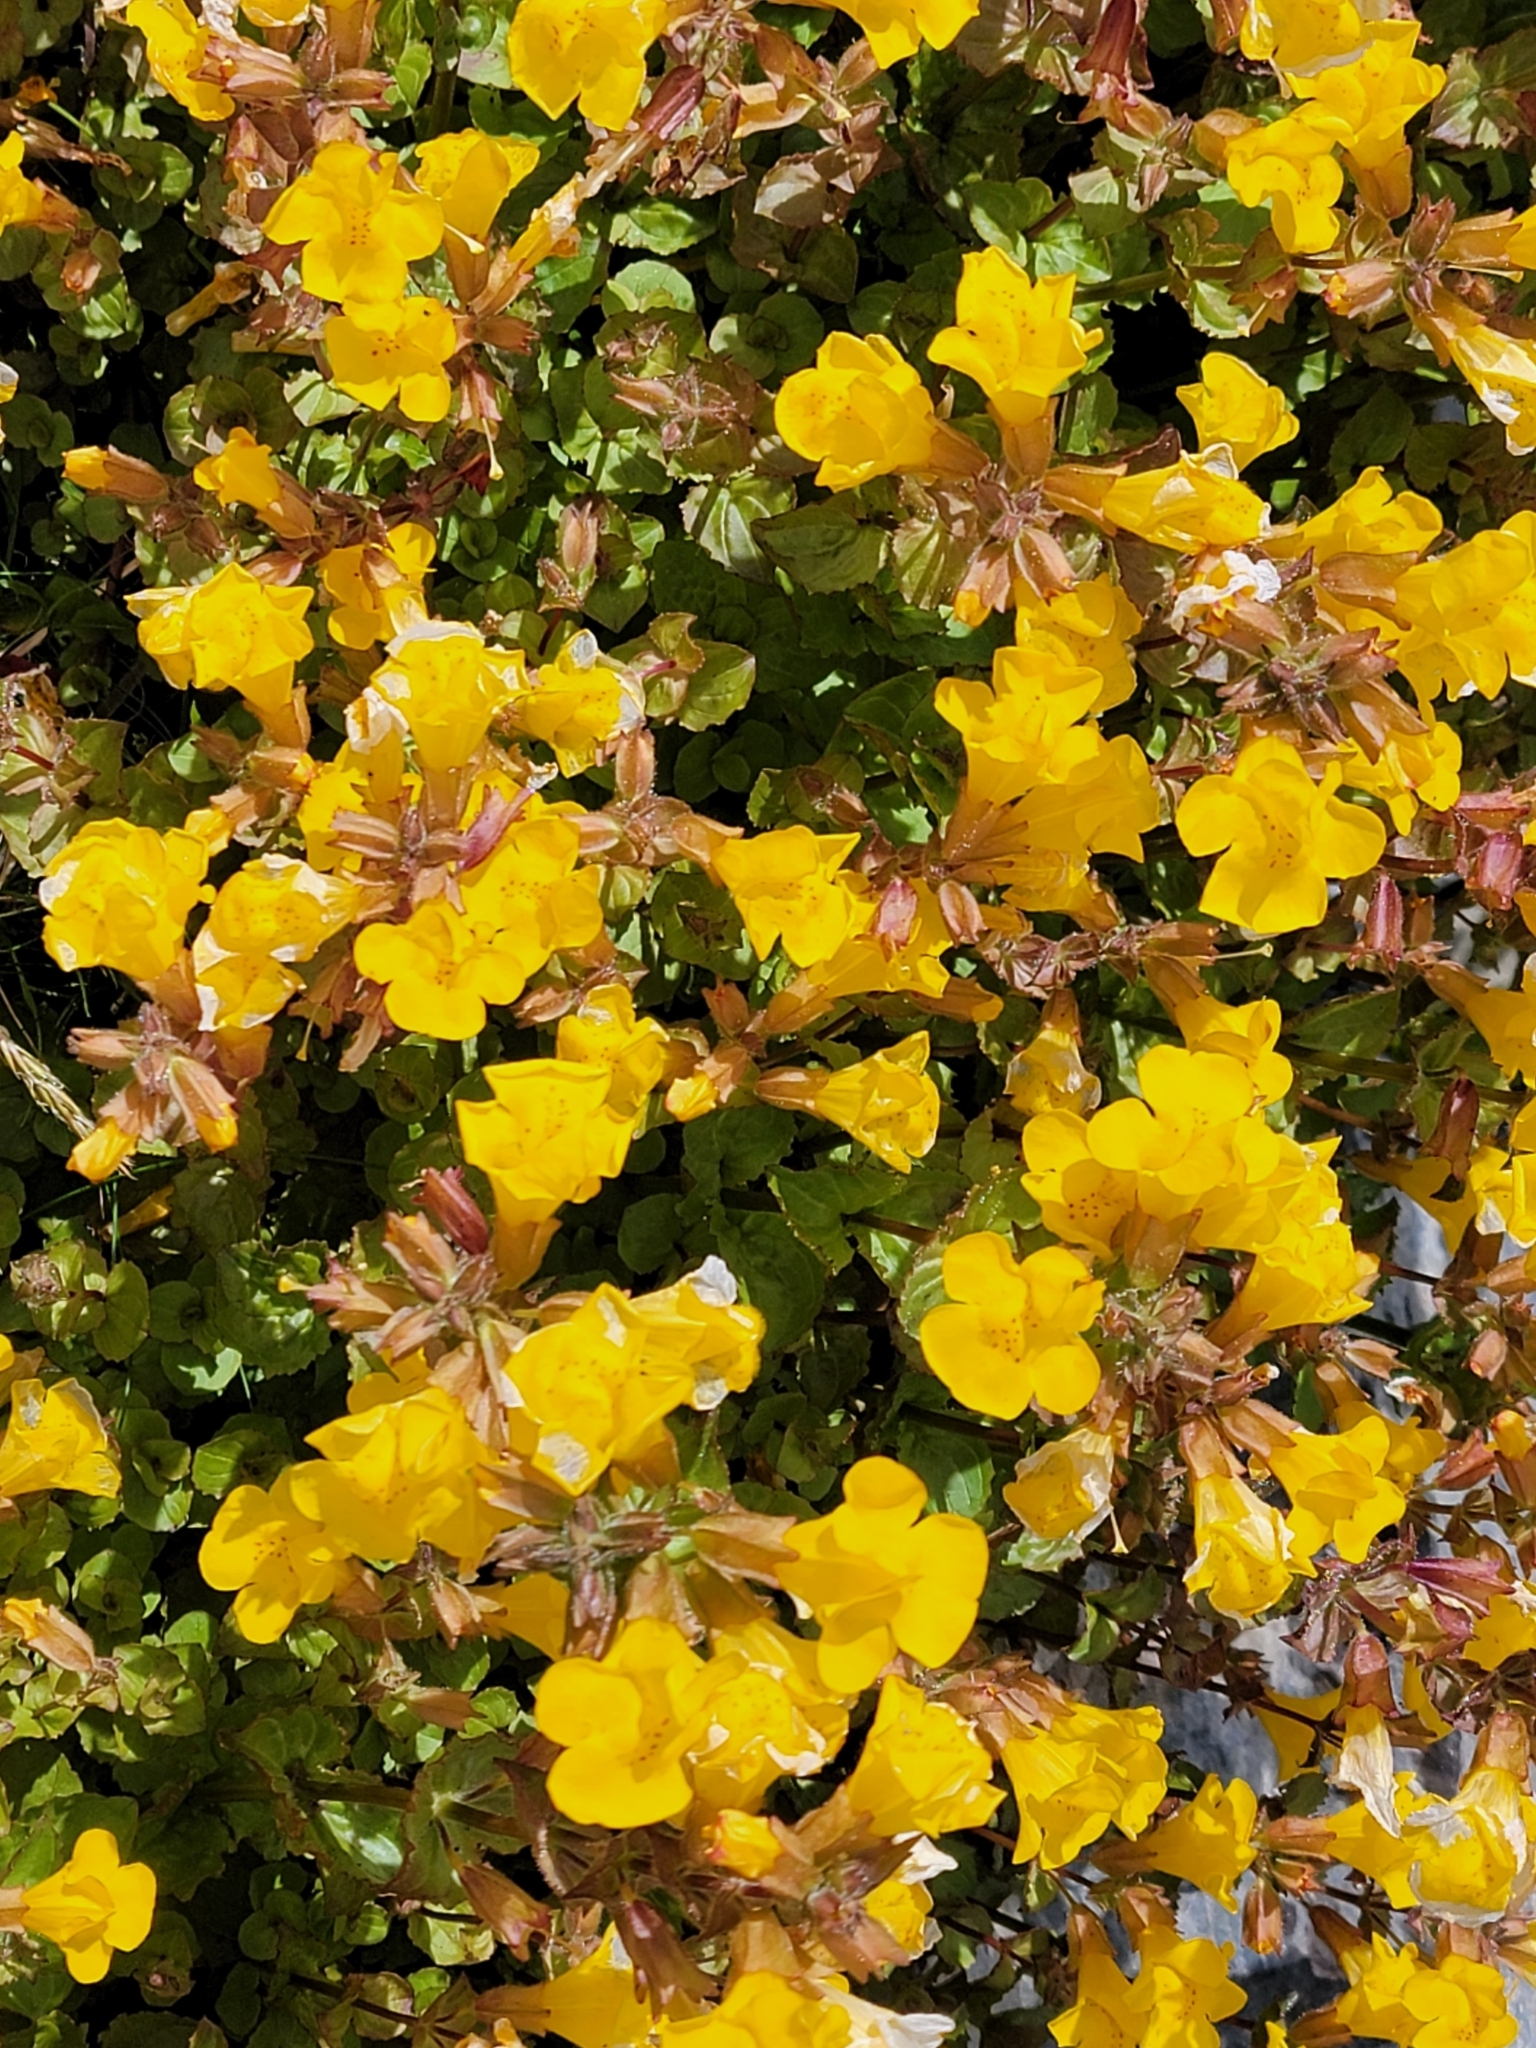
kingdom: Plantae
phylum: Tracheophyta
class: Magnoliopsida
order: Lamiales
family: Phrymaceae
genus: Erythranthe
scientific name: Erythranthe guttata
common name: Monkeyflower
